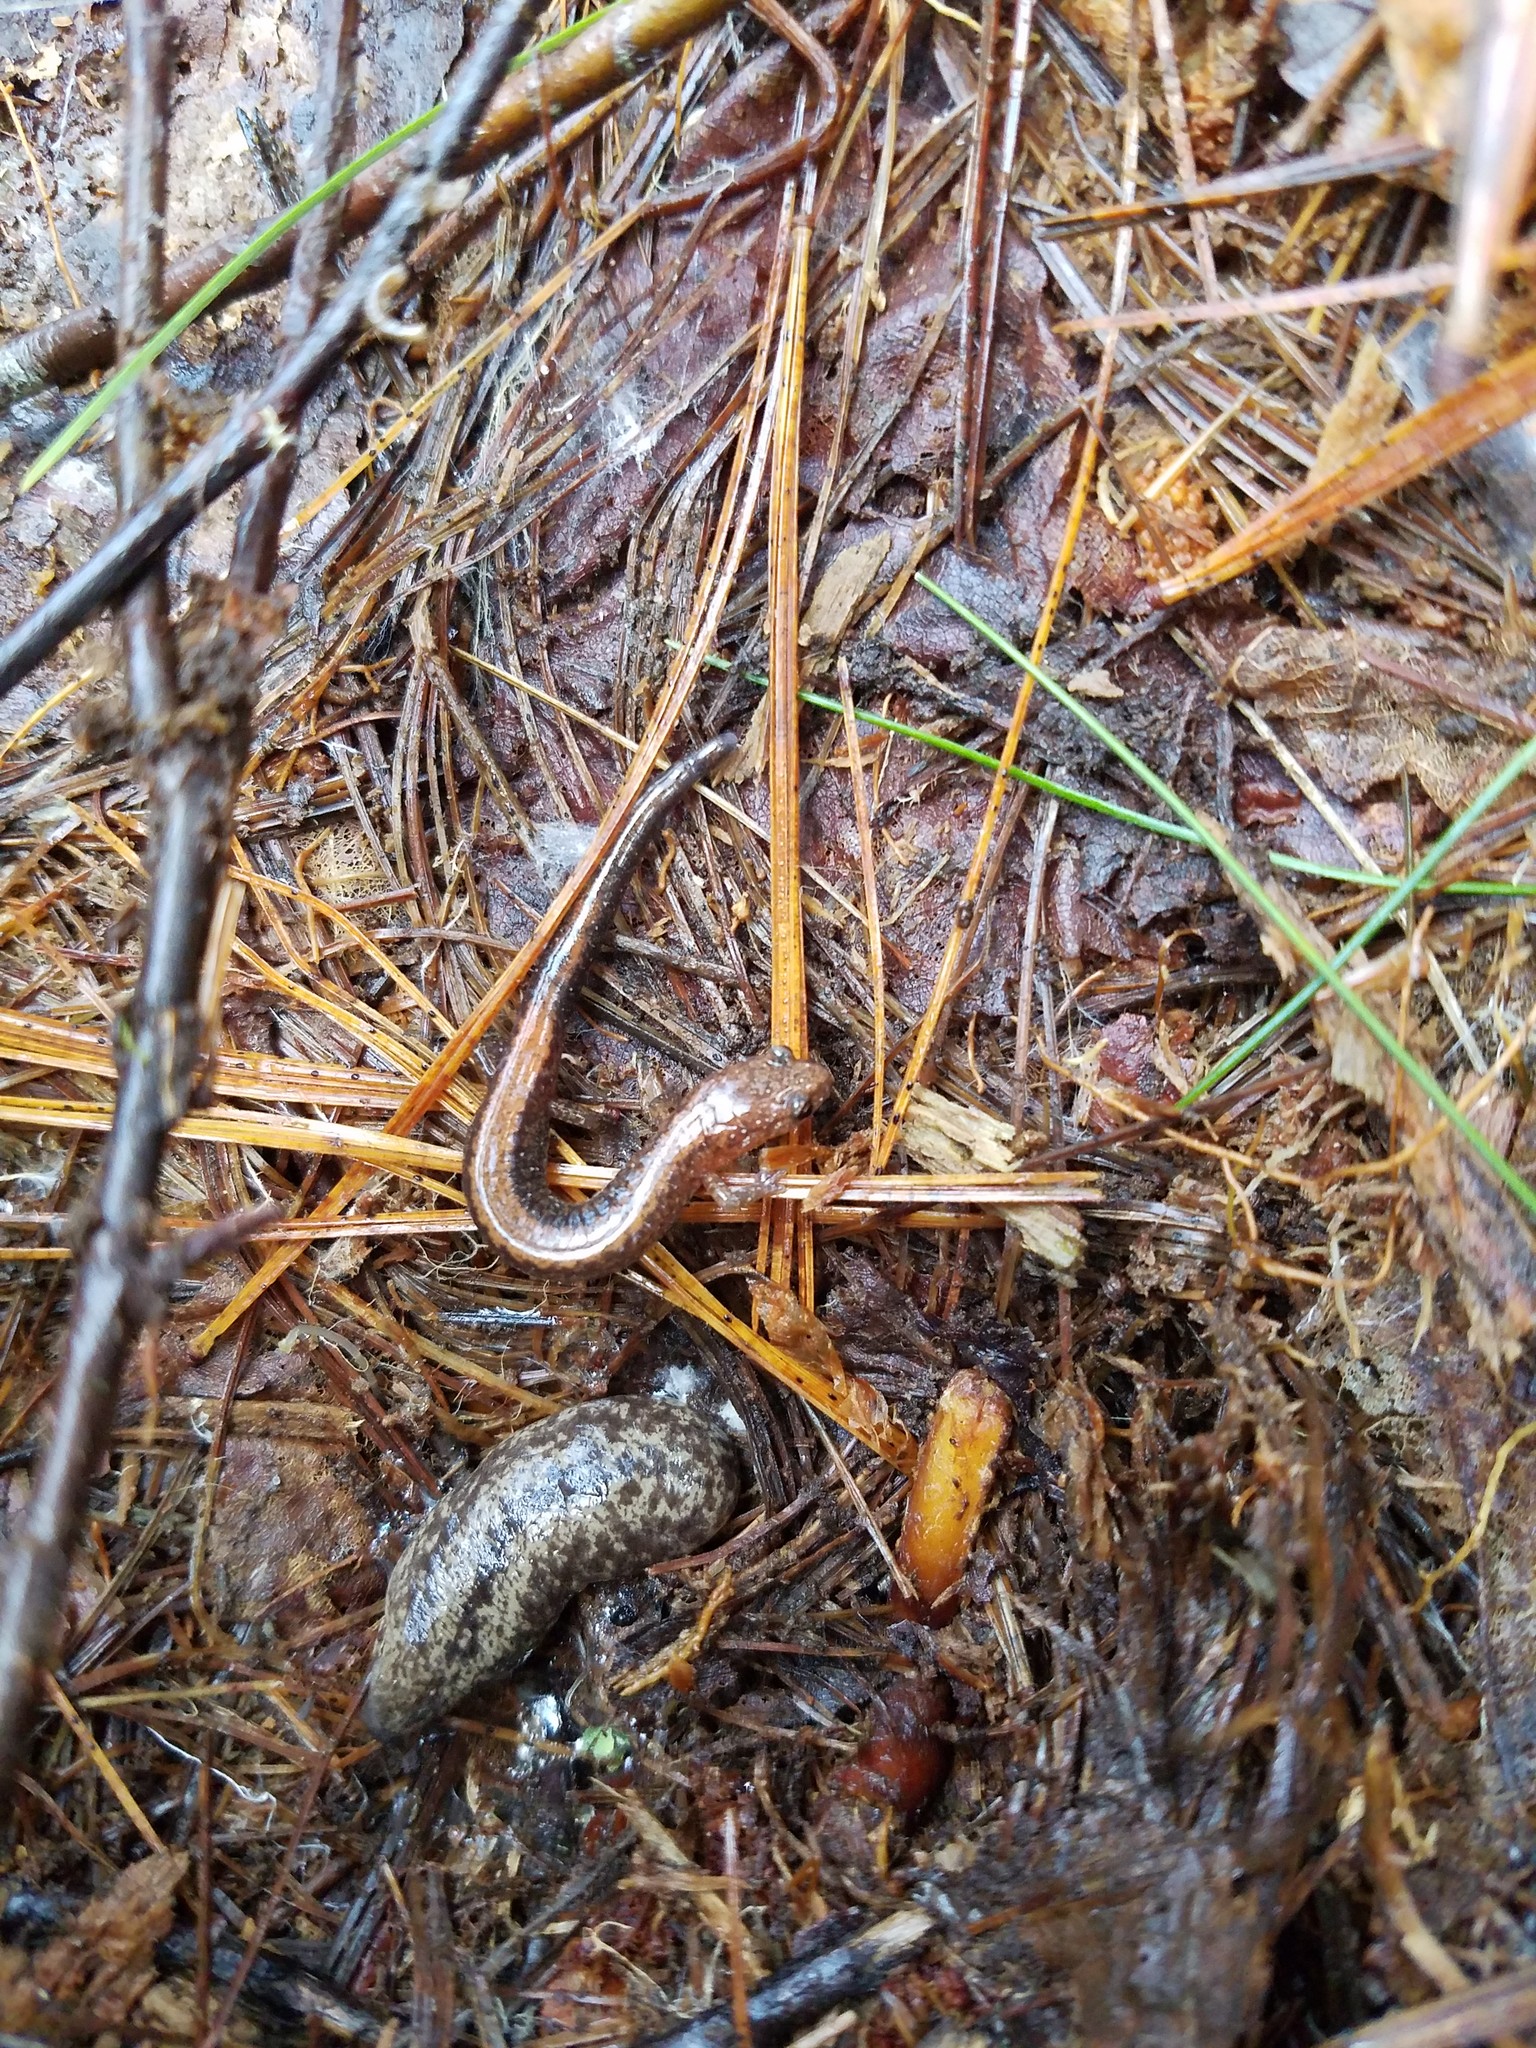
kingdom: Animalia
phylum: Chordata
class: Amphibia
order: Caudata
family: Plethodontidae
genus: Plethodon
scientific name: Plethodon cinereus
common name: Redback salamander
